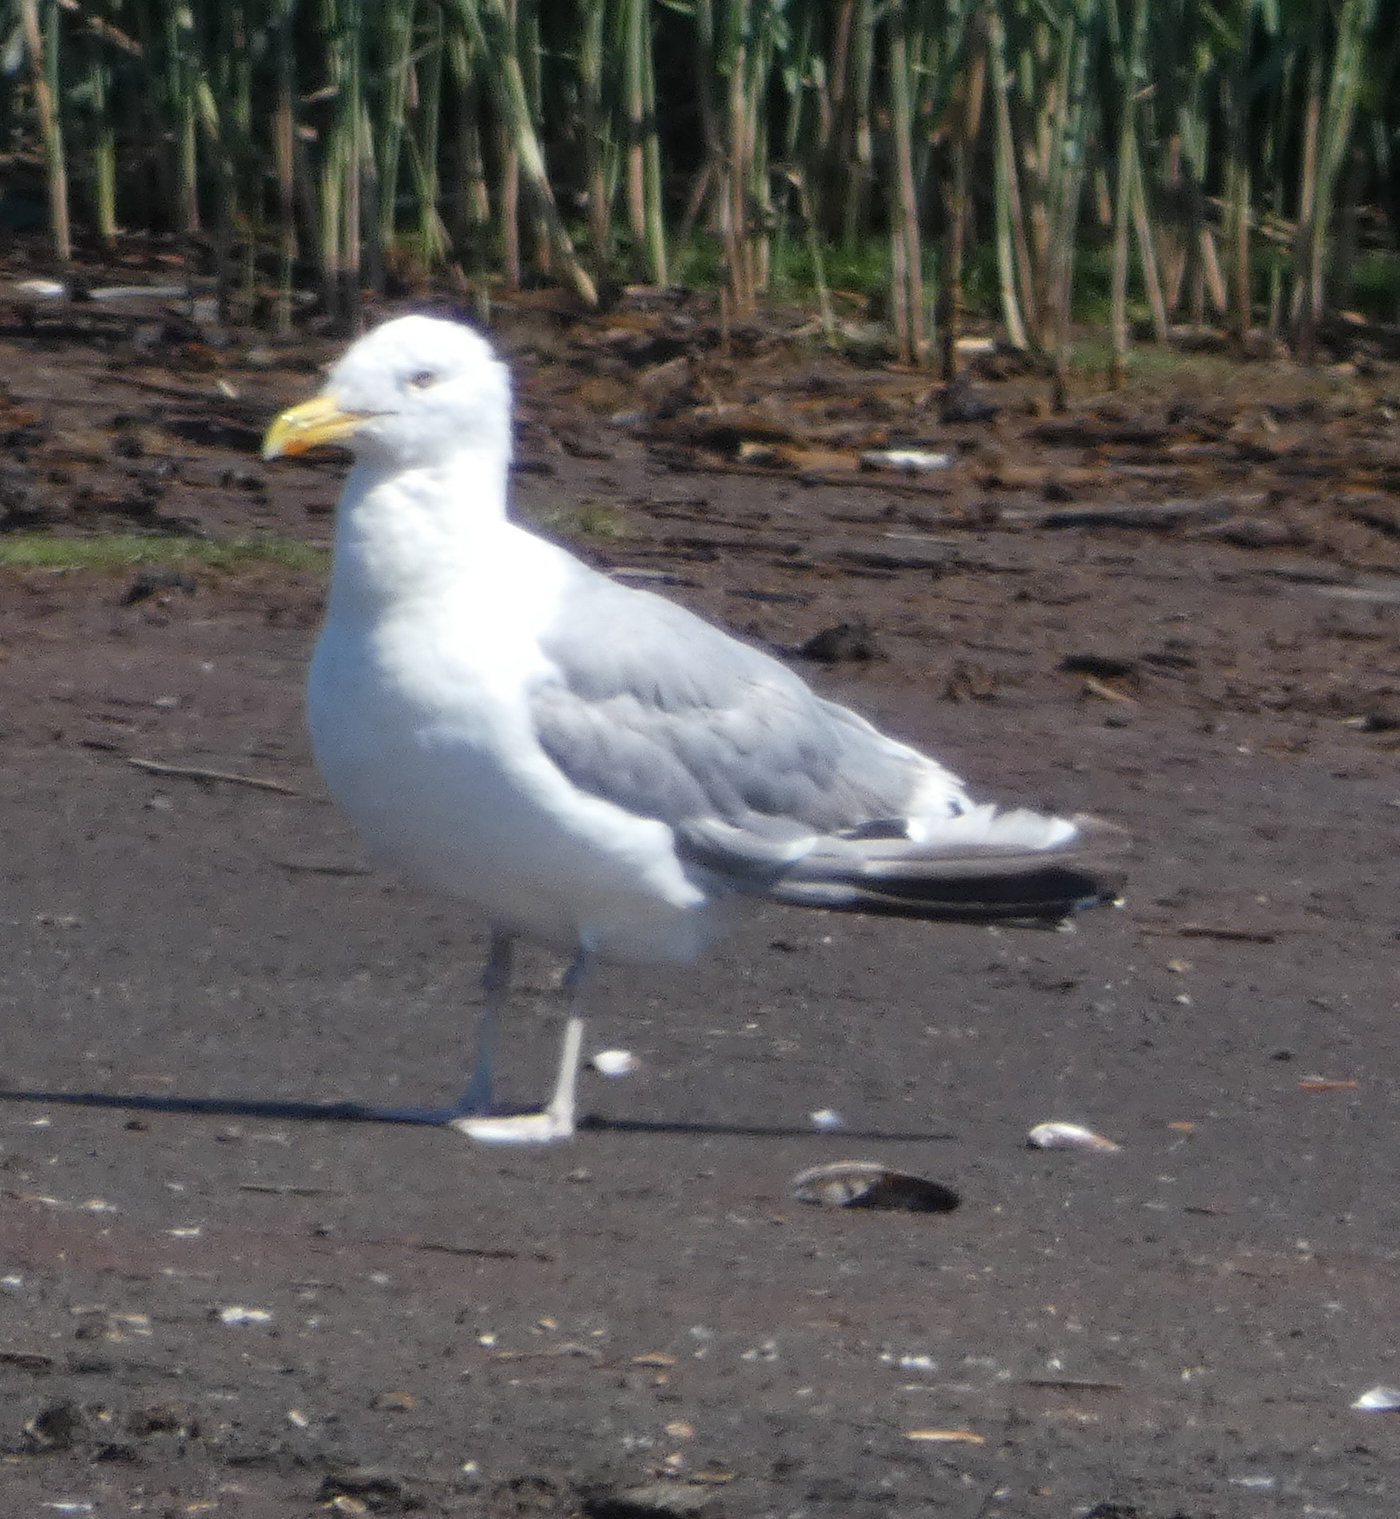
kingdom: Animalia
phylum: Chordata
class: Aves
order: Charadriiformes
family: Laridae
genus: Larus
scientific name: Larus argentatus
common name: Herring gull
